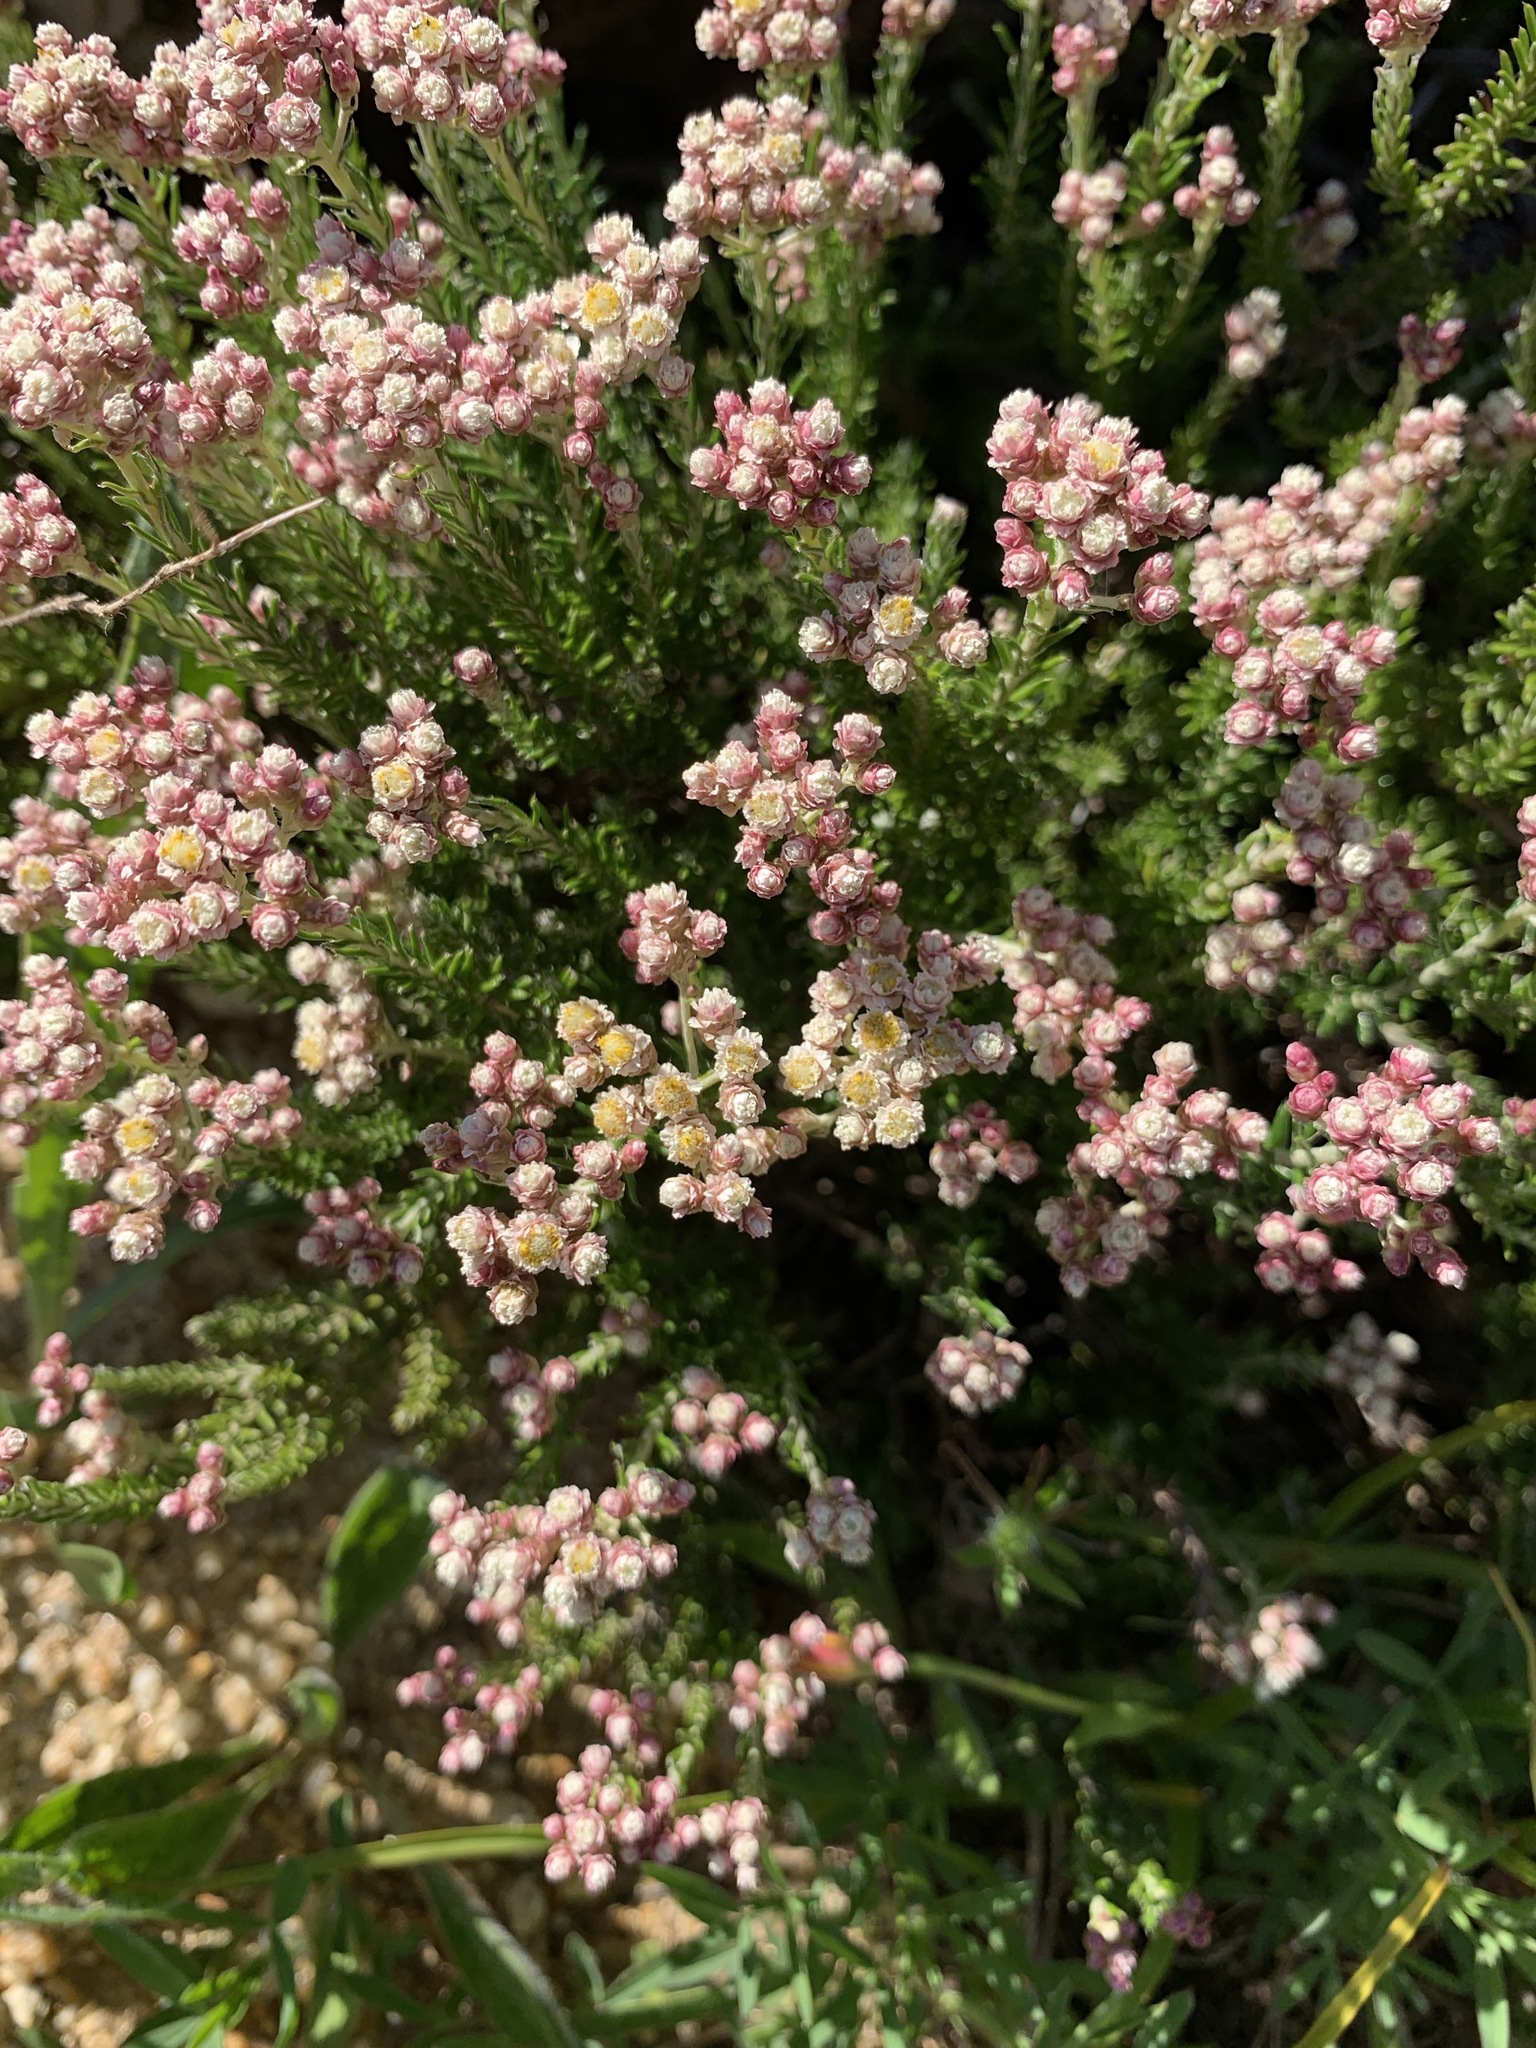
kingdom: Plantae
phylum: Tracheophyta
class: Magnoliopsida
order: Asterales
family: Asteraceae
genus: Helichrysum
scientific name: Helichrysum teretifolium
